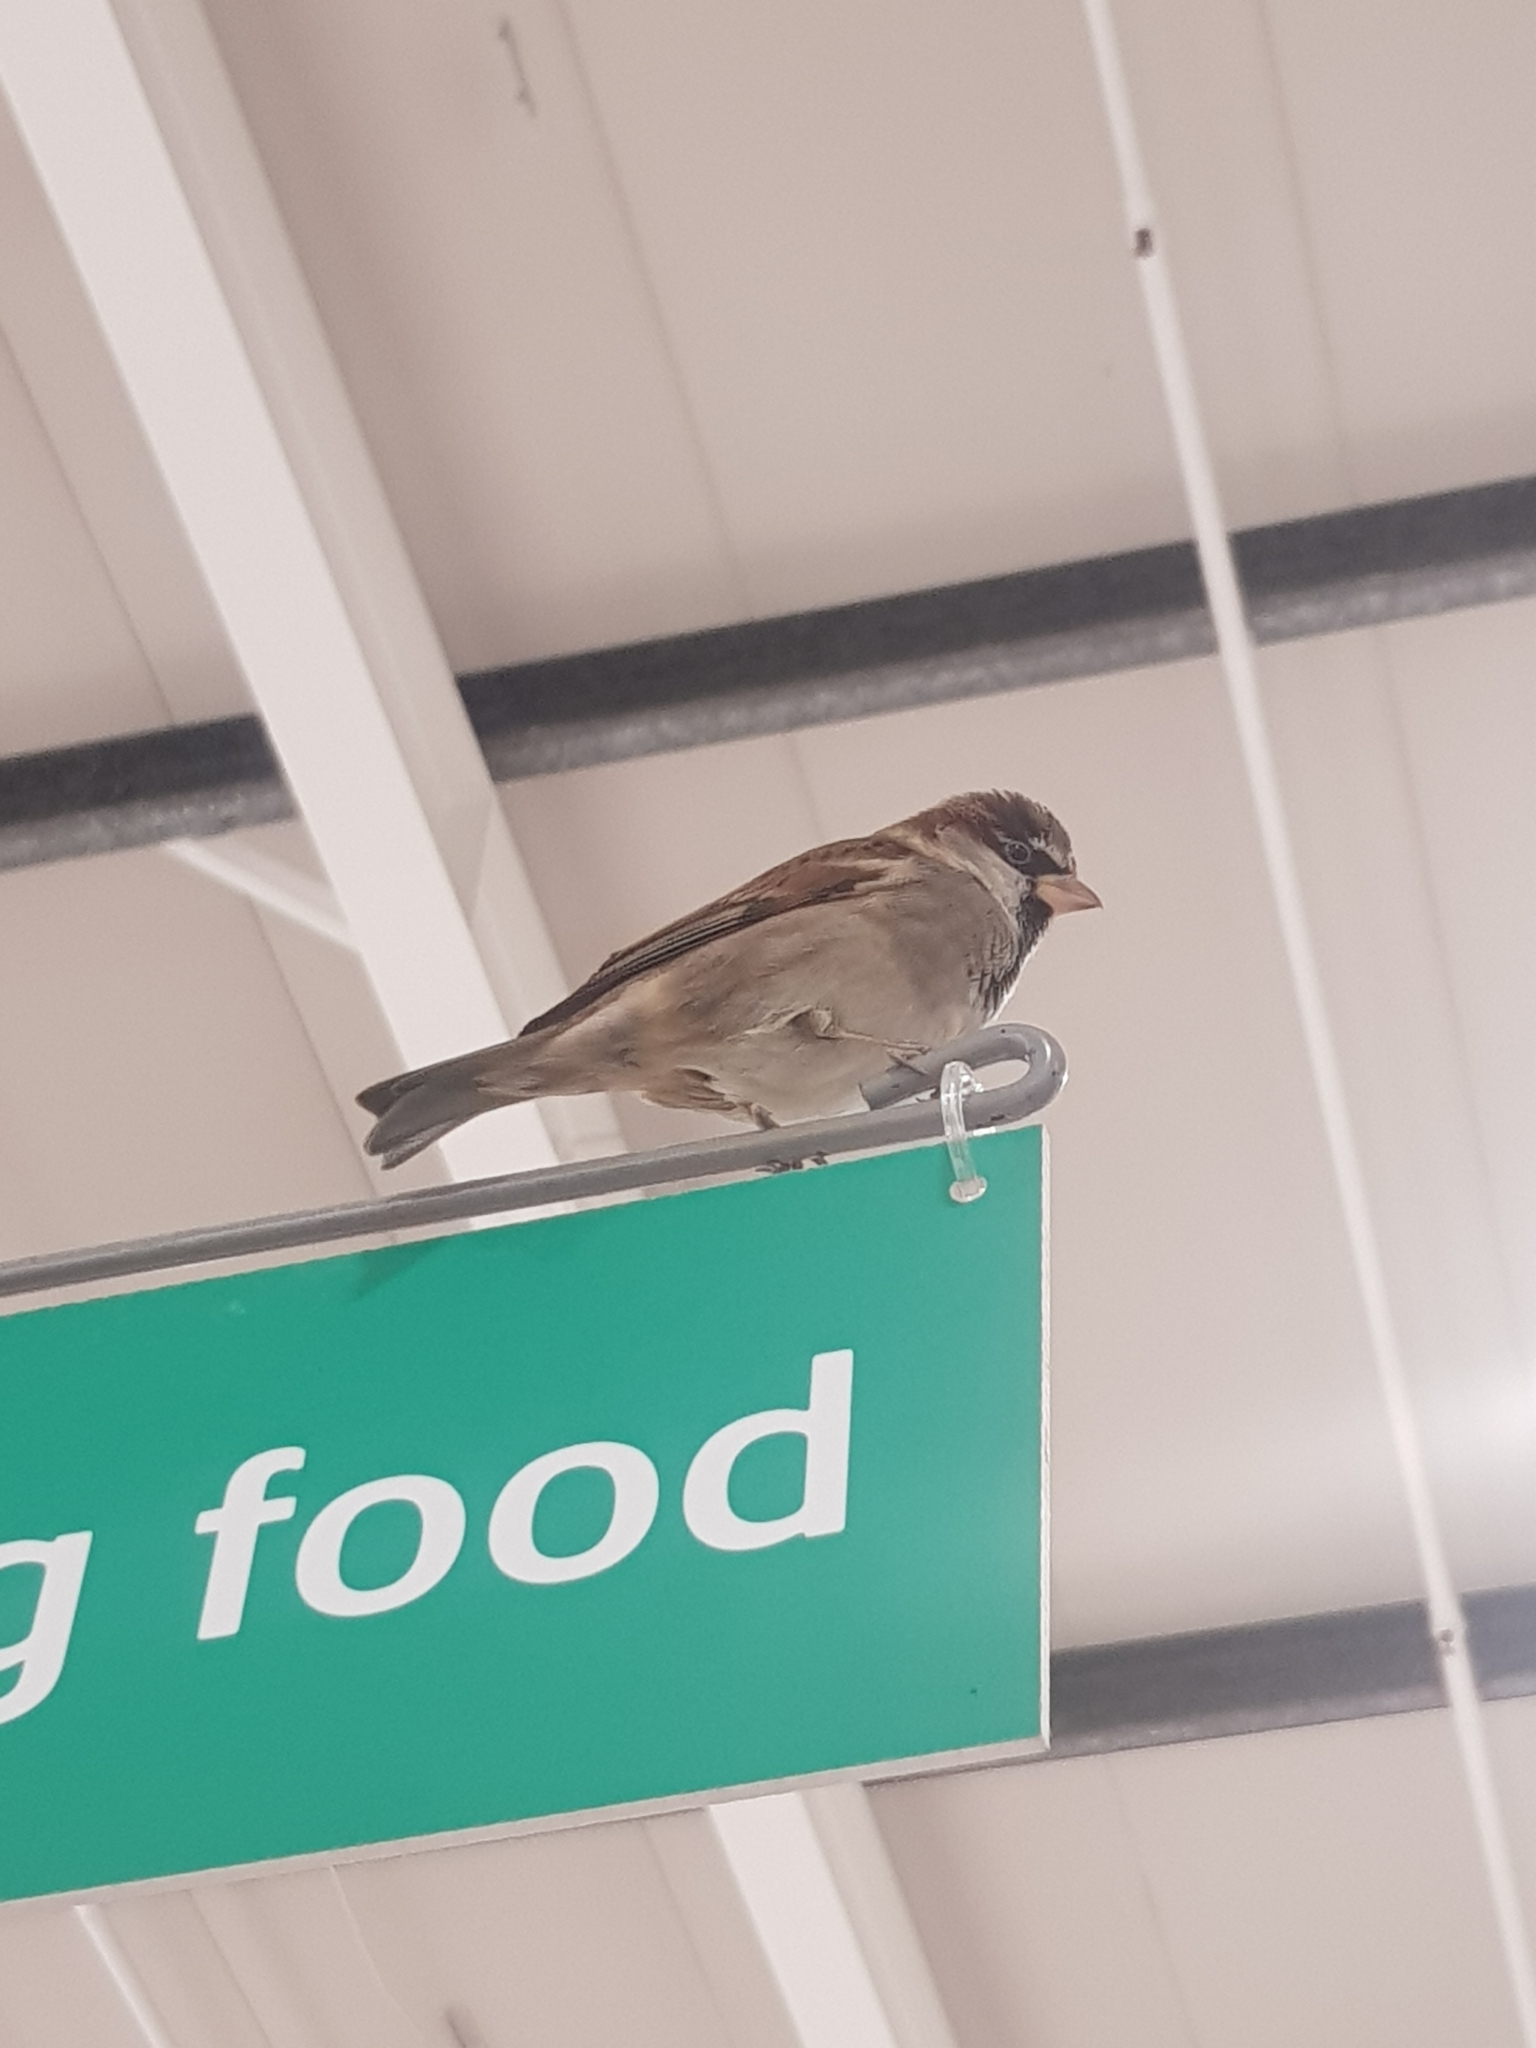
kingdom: Animalia
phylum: Chordata
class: Aves
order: Passeriformes
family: Passeridae
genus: Passer
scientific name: Passer domesticus
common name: House sparrow
